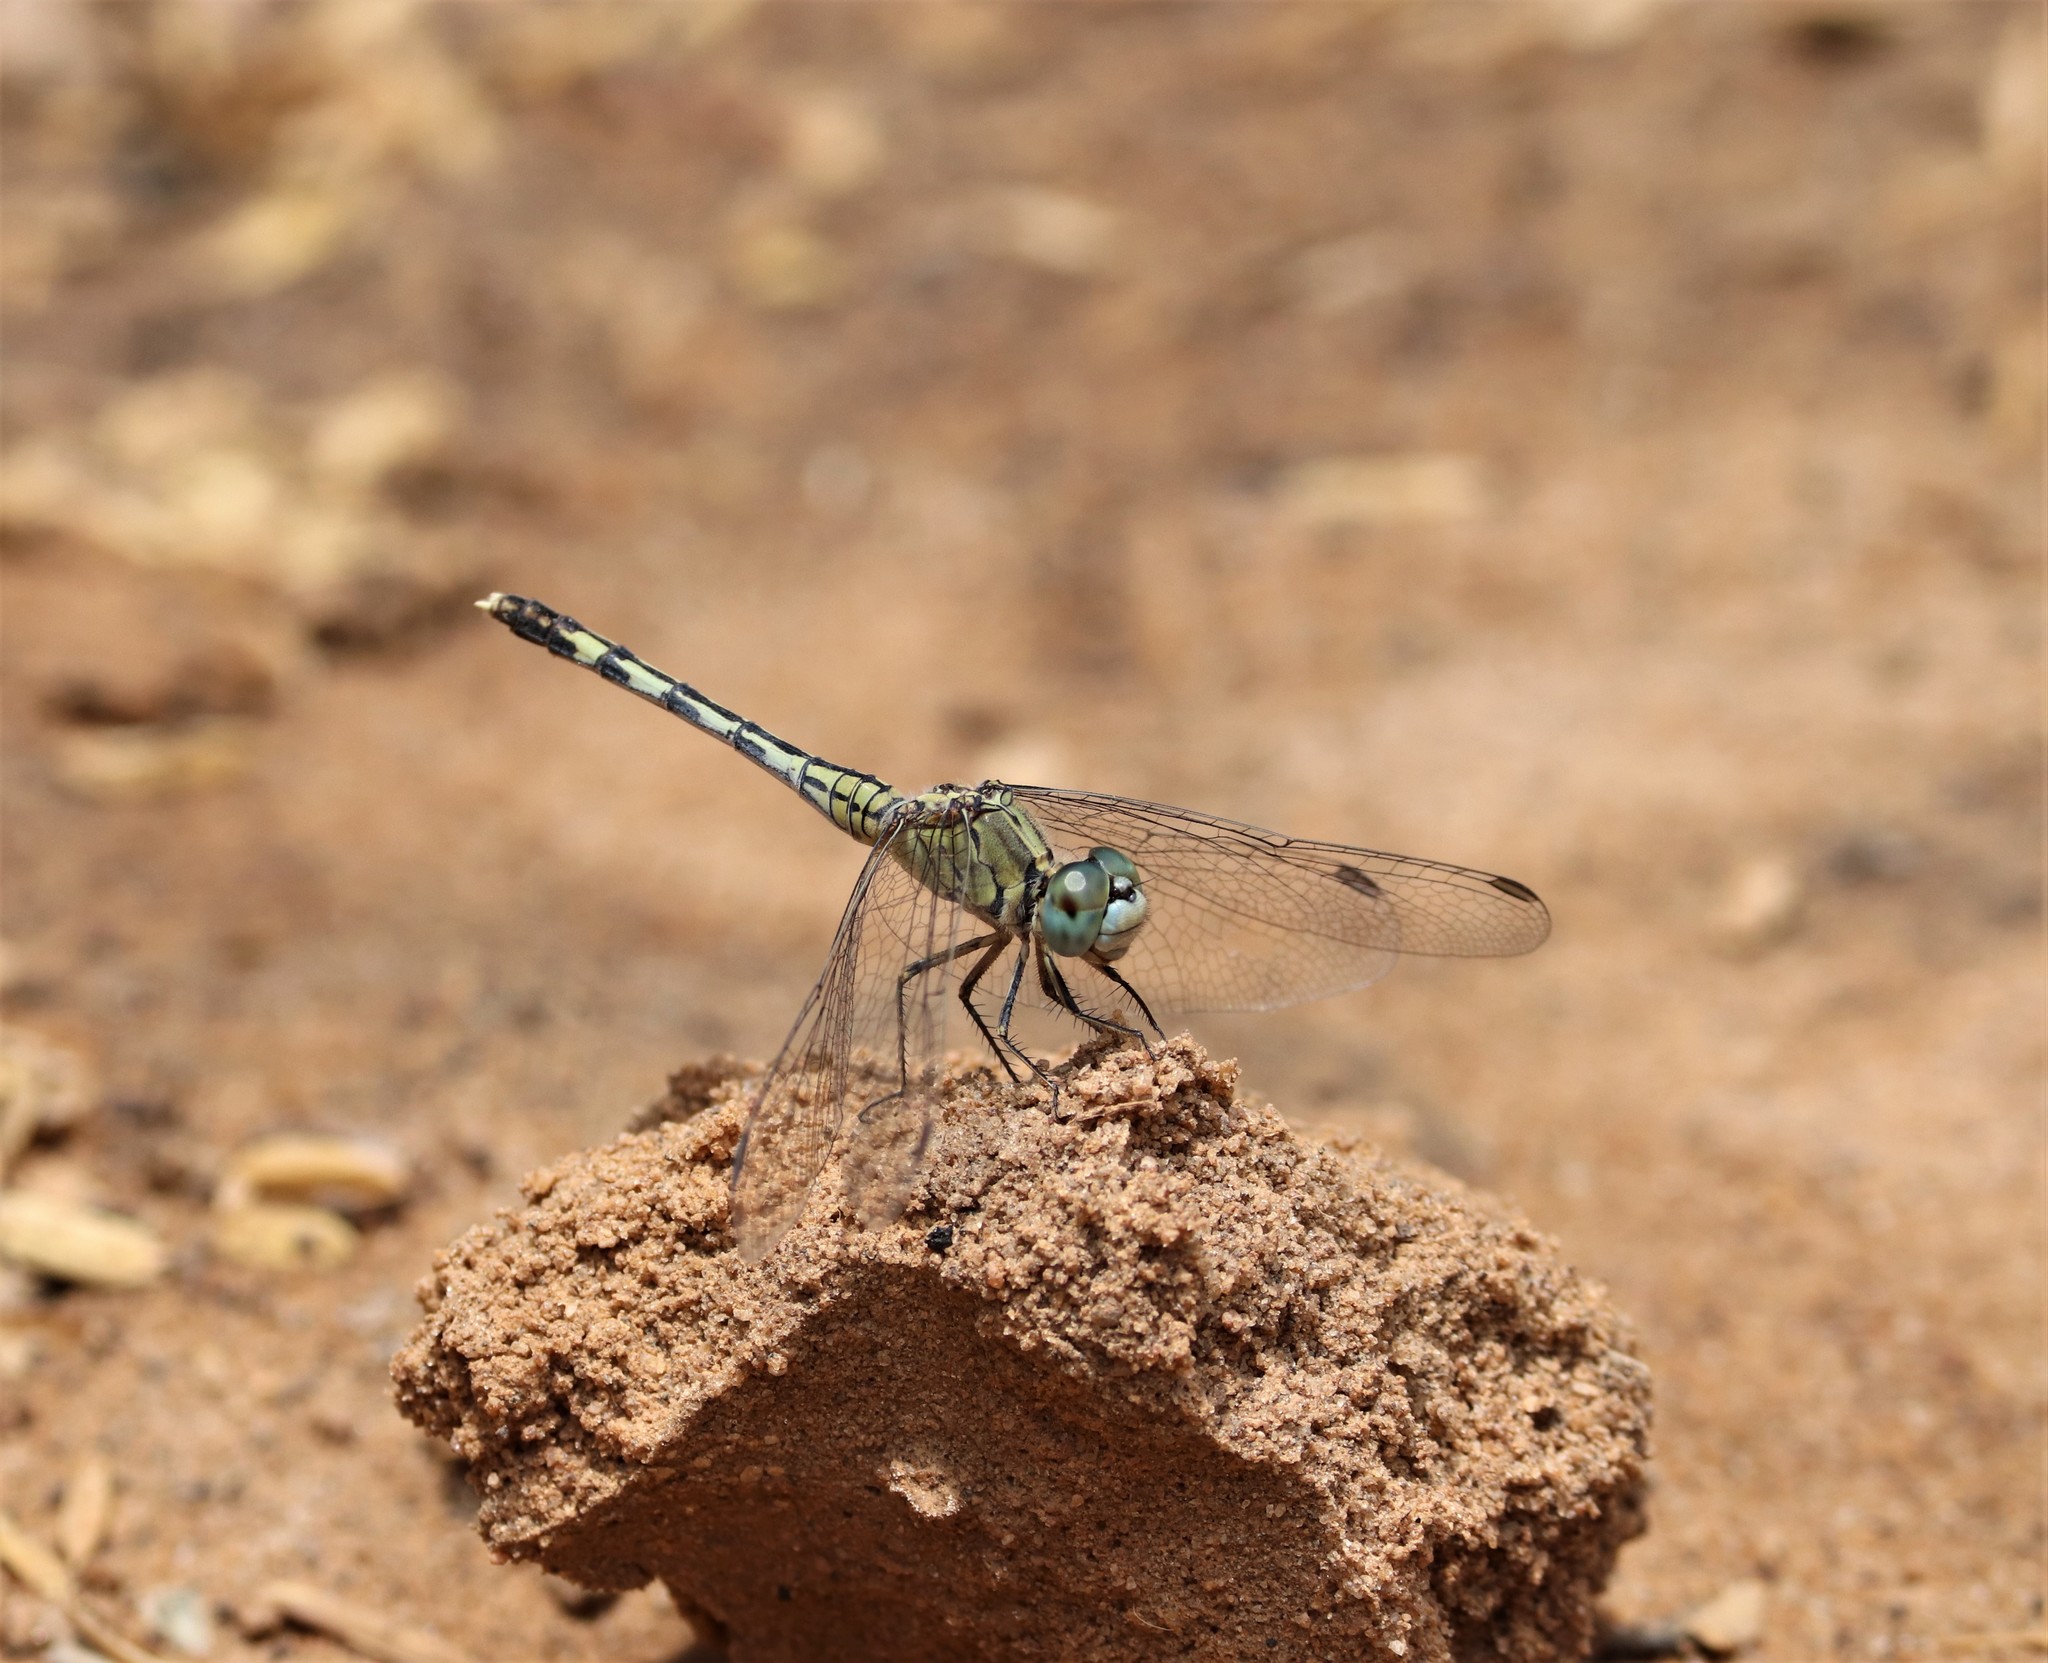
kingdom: Animalia
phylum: Arthropoda
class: Insecta
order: Odonata
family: Libellulidae
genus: Diplacodes
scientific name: Diplacodes trivialis
